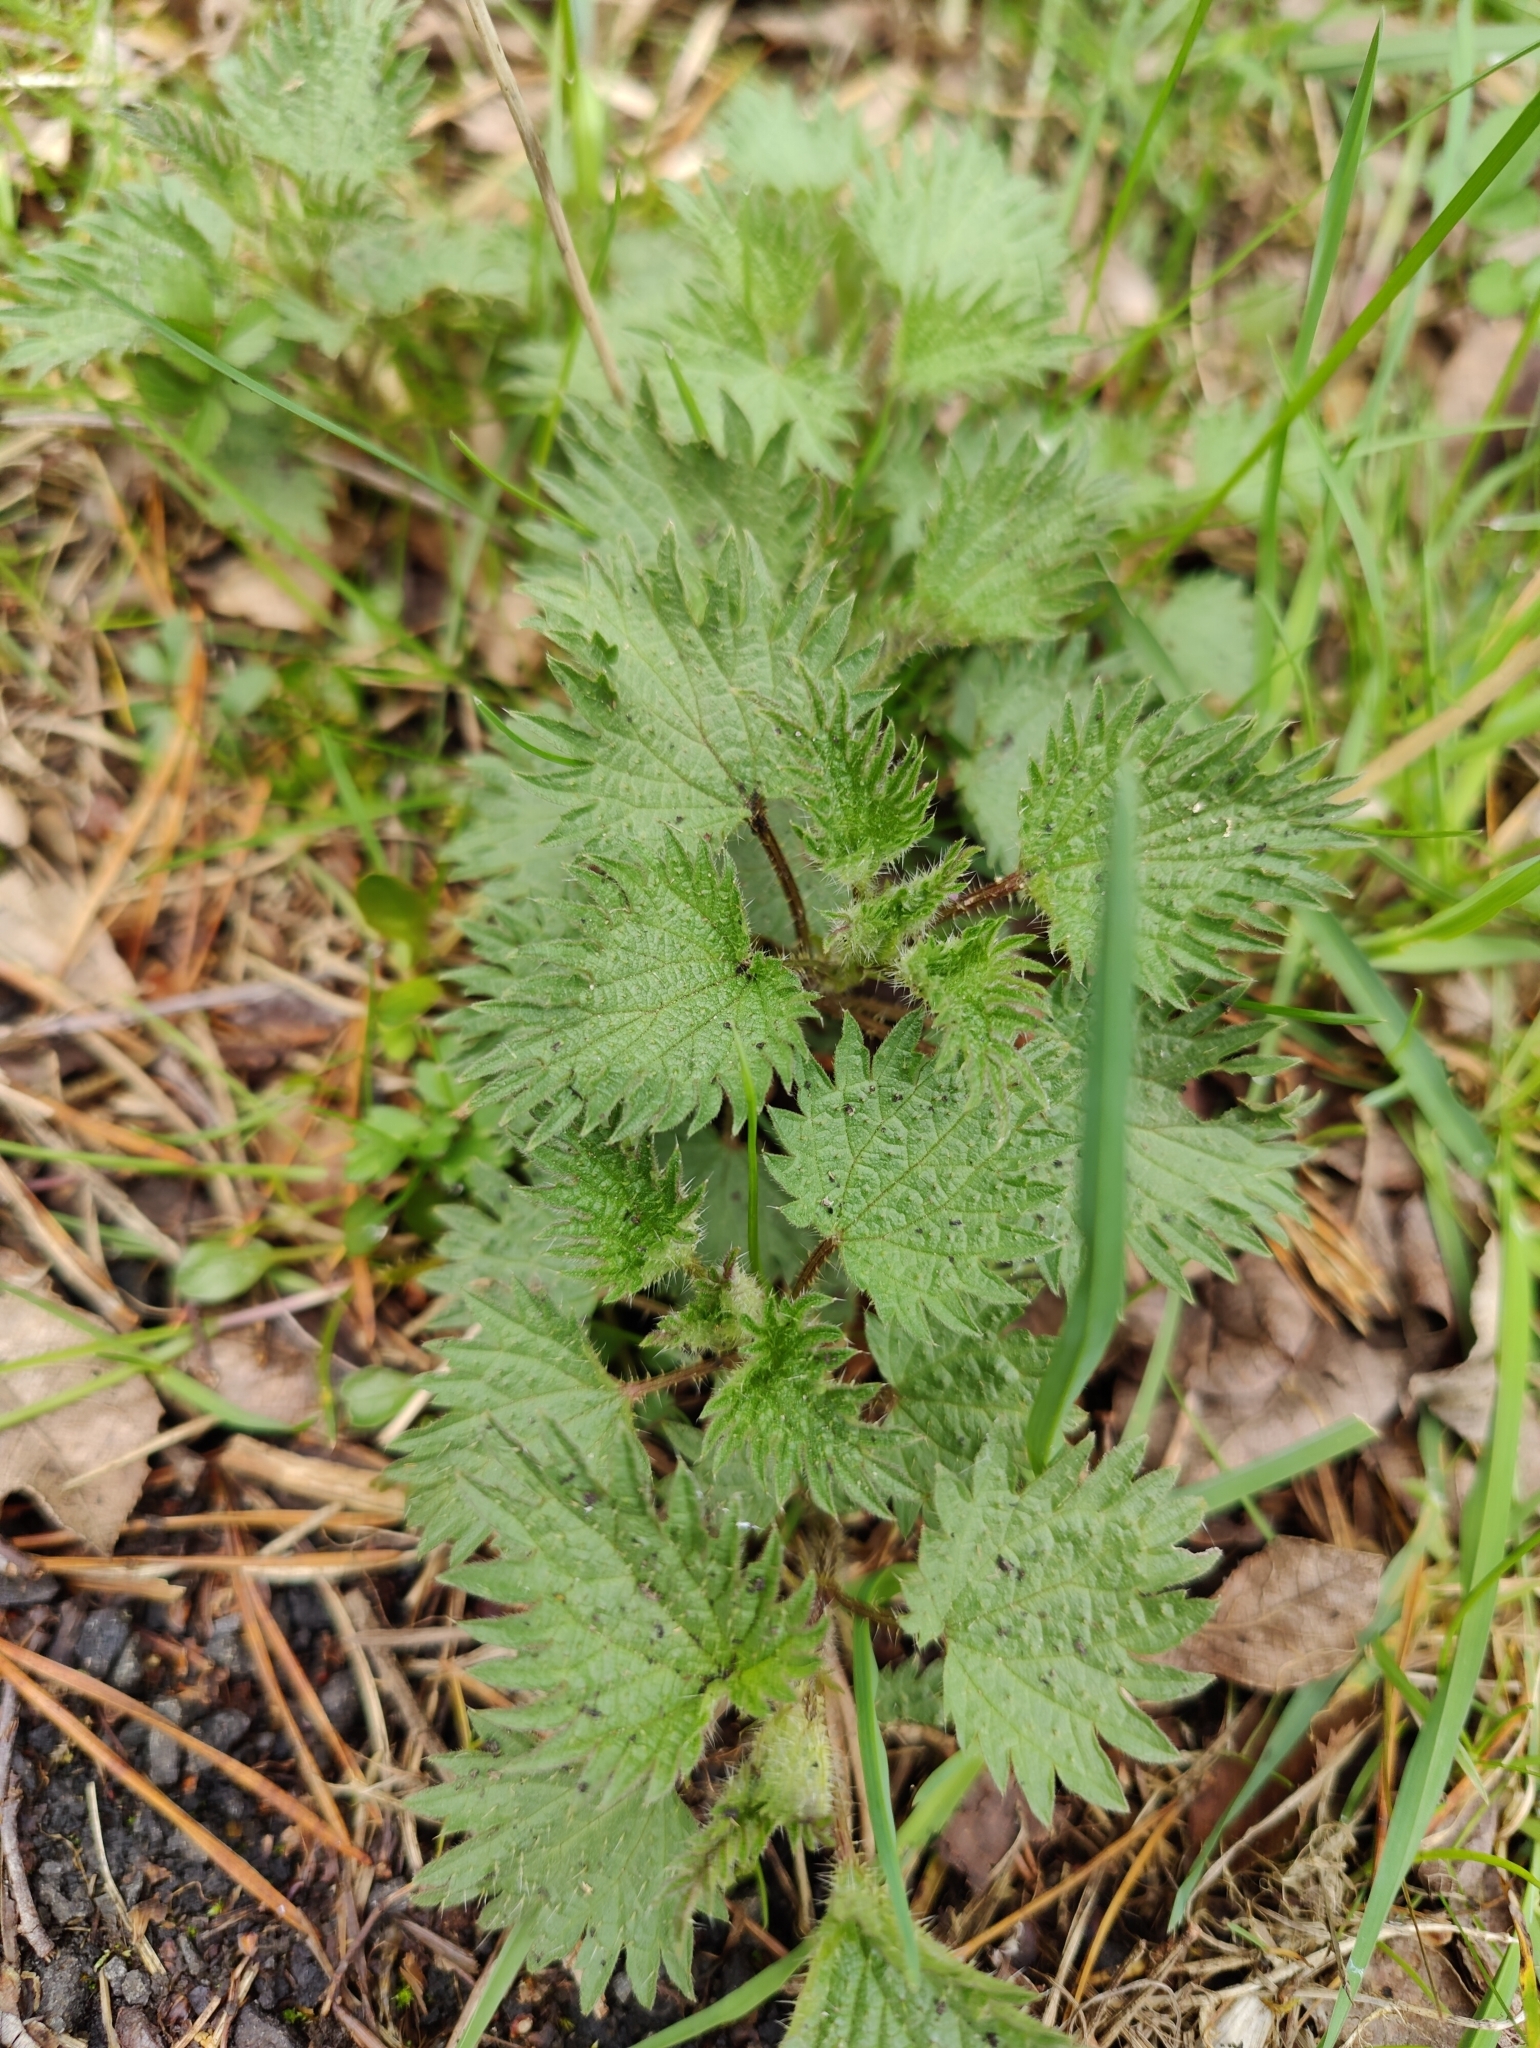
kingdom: Plantae
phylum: Tracheophyta
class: Magnoliopsida
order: Rosales
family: Urticaceae
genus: Urtica
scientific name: Urtica urens
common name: Dwarf nettle
